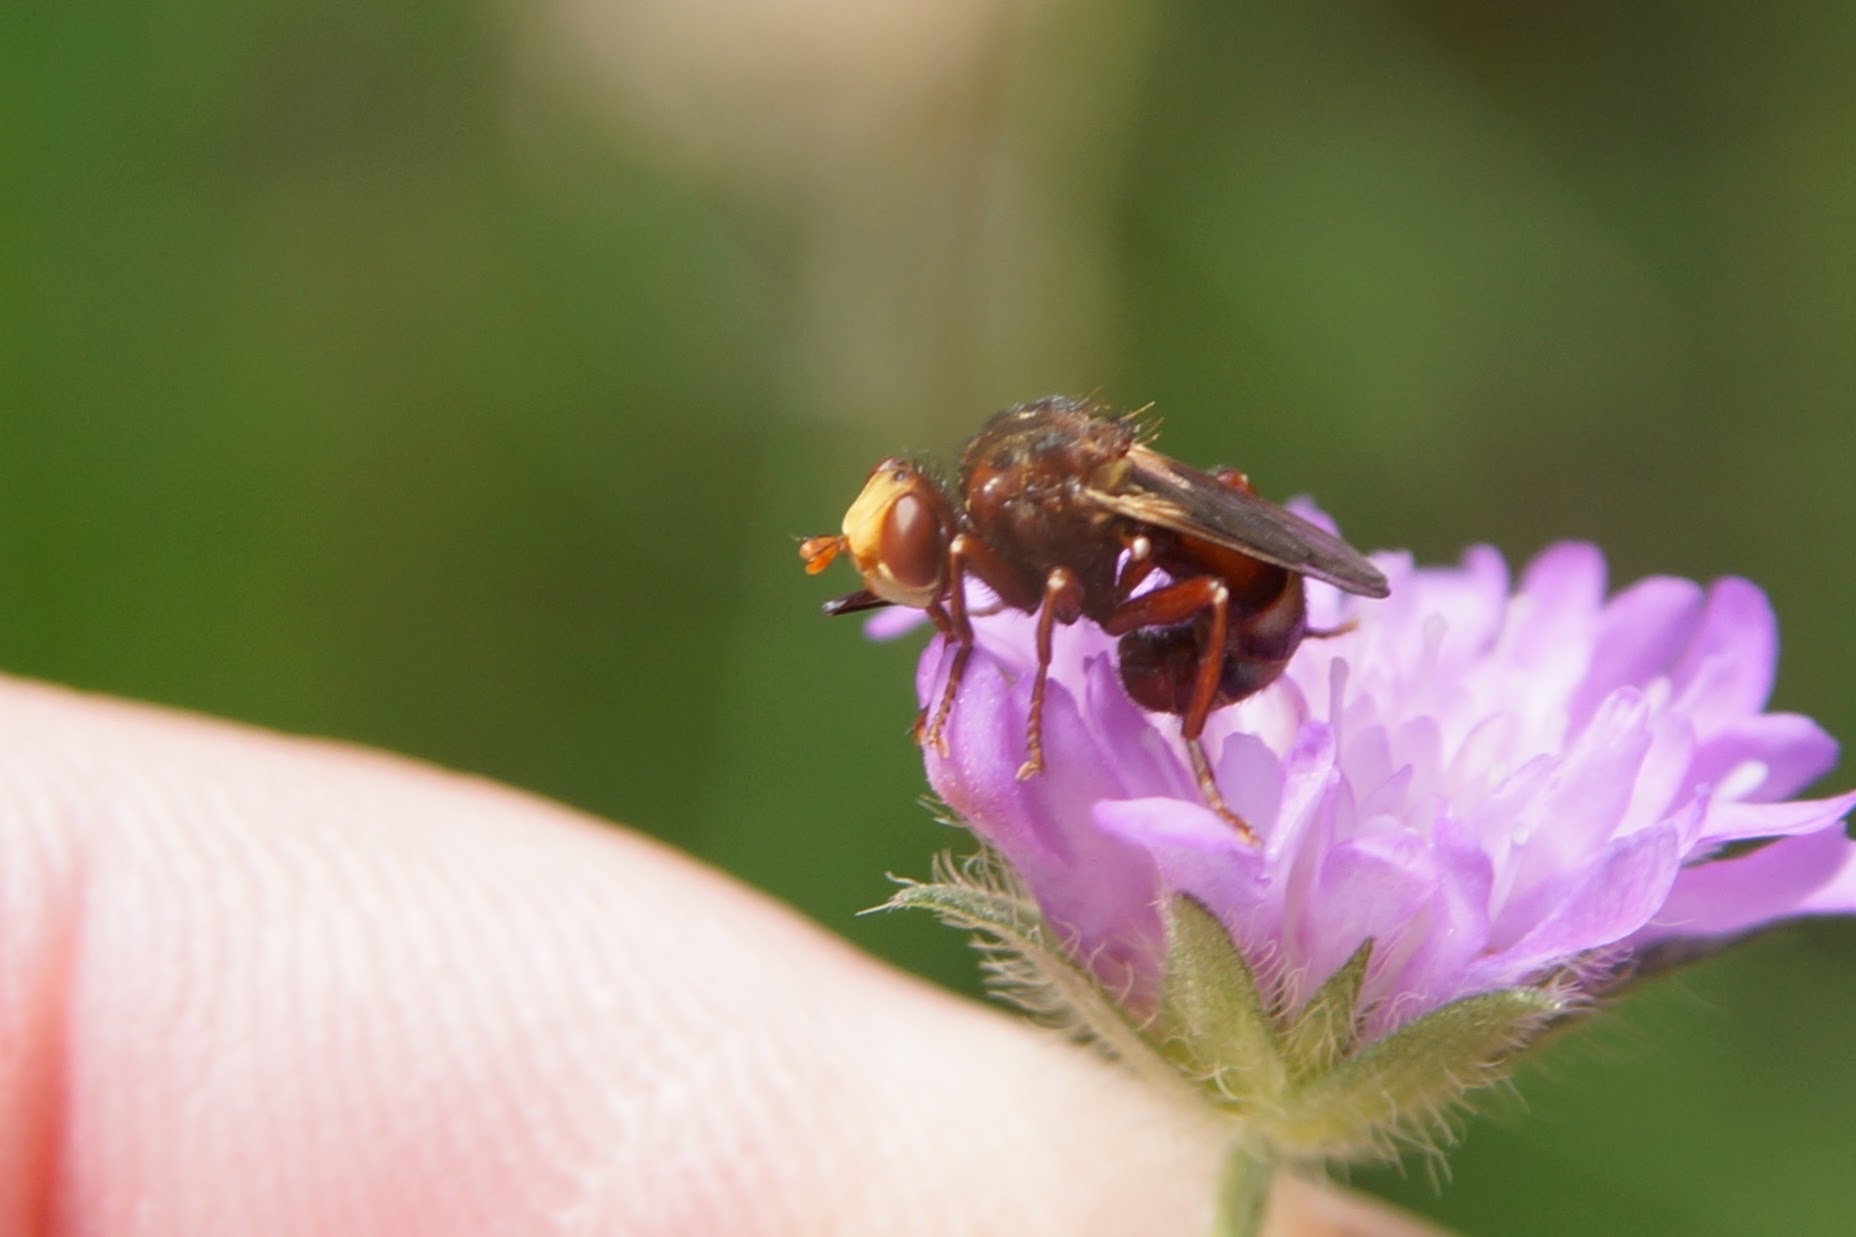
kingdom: Animalia
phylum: Arthropoda
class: Insecta
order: Diptera
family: Conopidae
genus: Sicus
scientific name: Sicus ferrugineus
